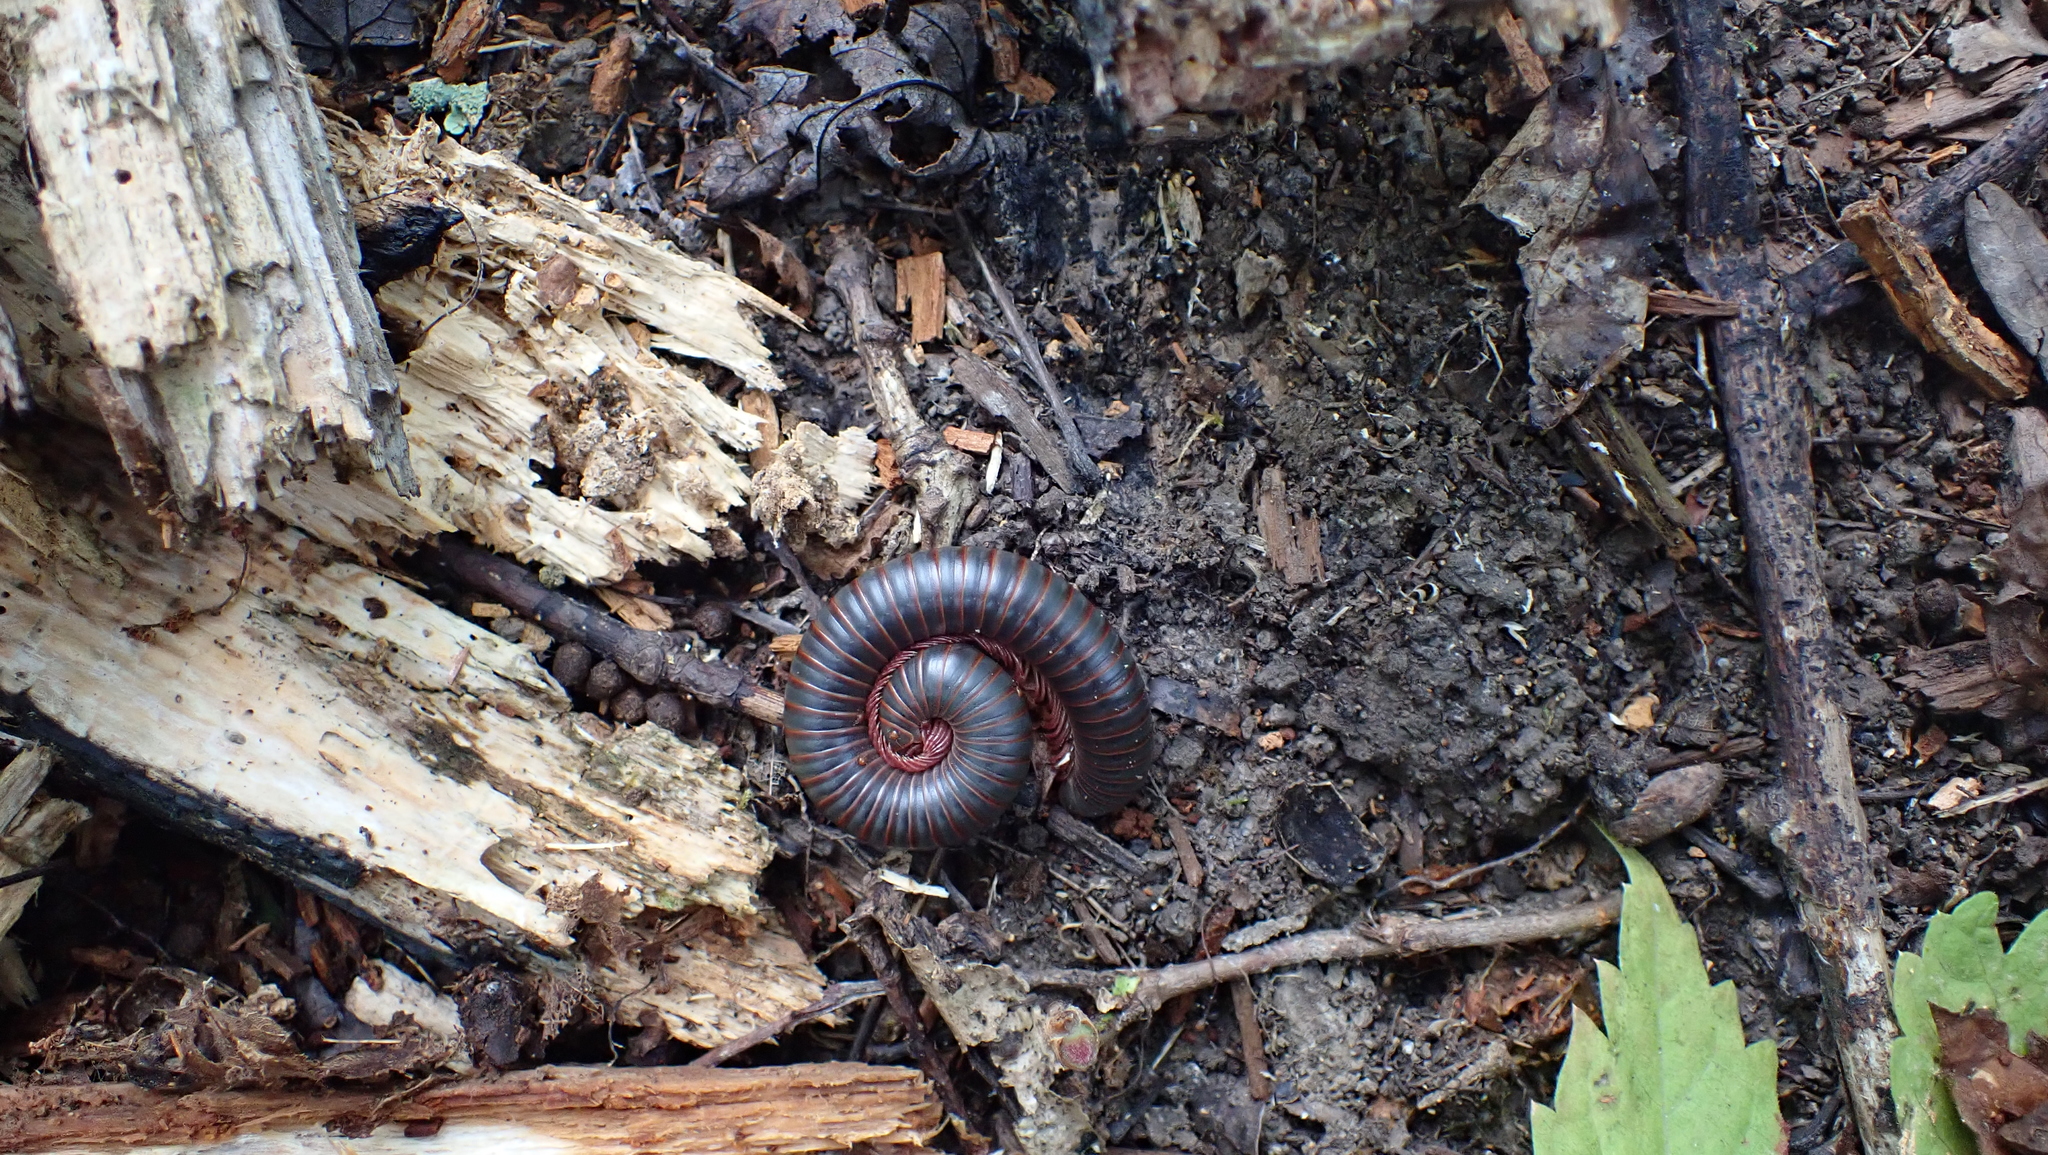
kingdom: Animalia
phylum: Arthropoda
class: Diplopoda
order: Spirobolida
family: Spirobolidae
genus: Narceus
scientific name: Narceus
